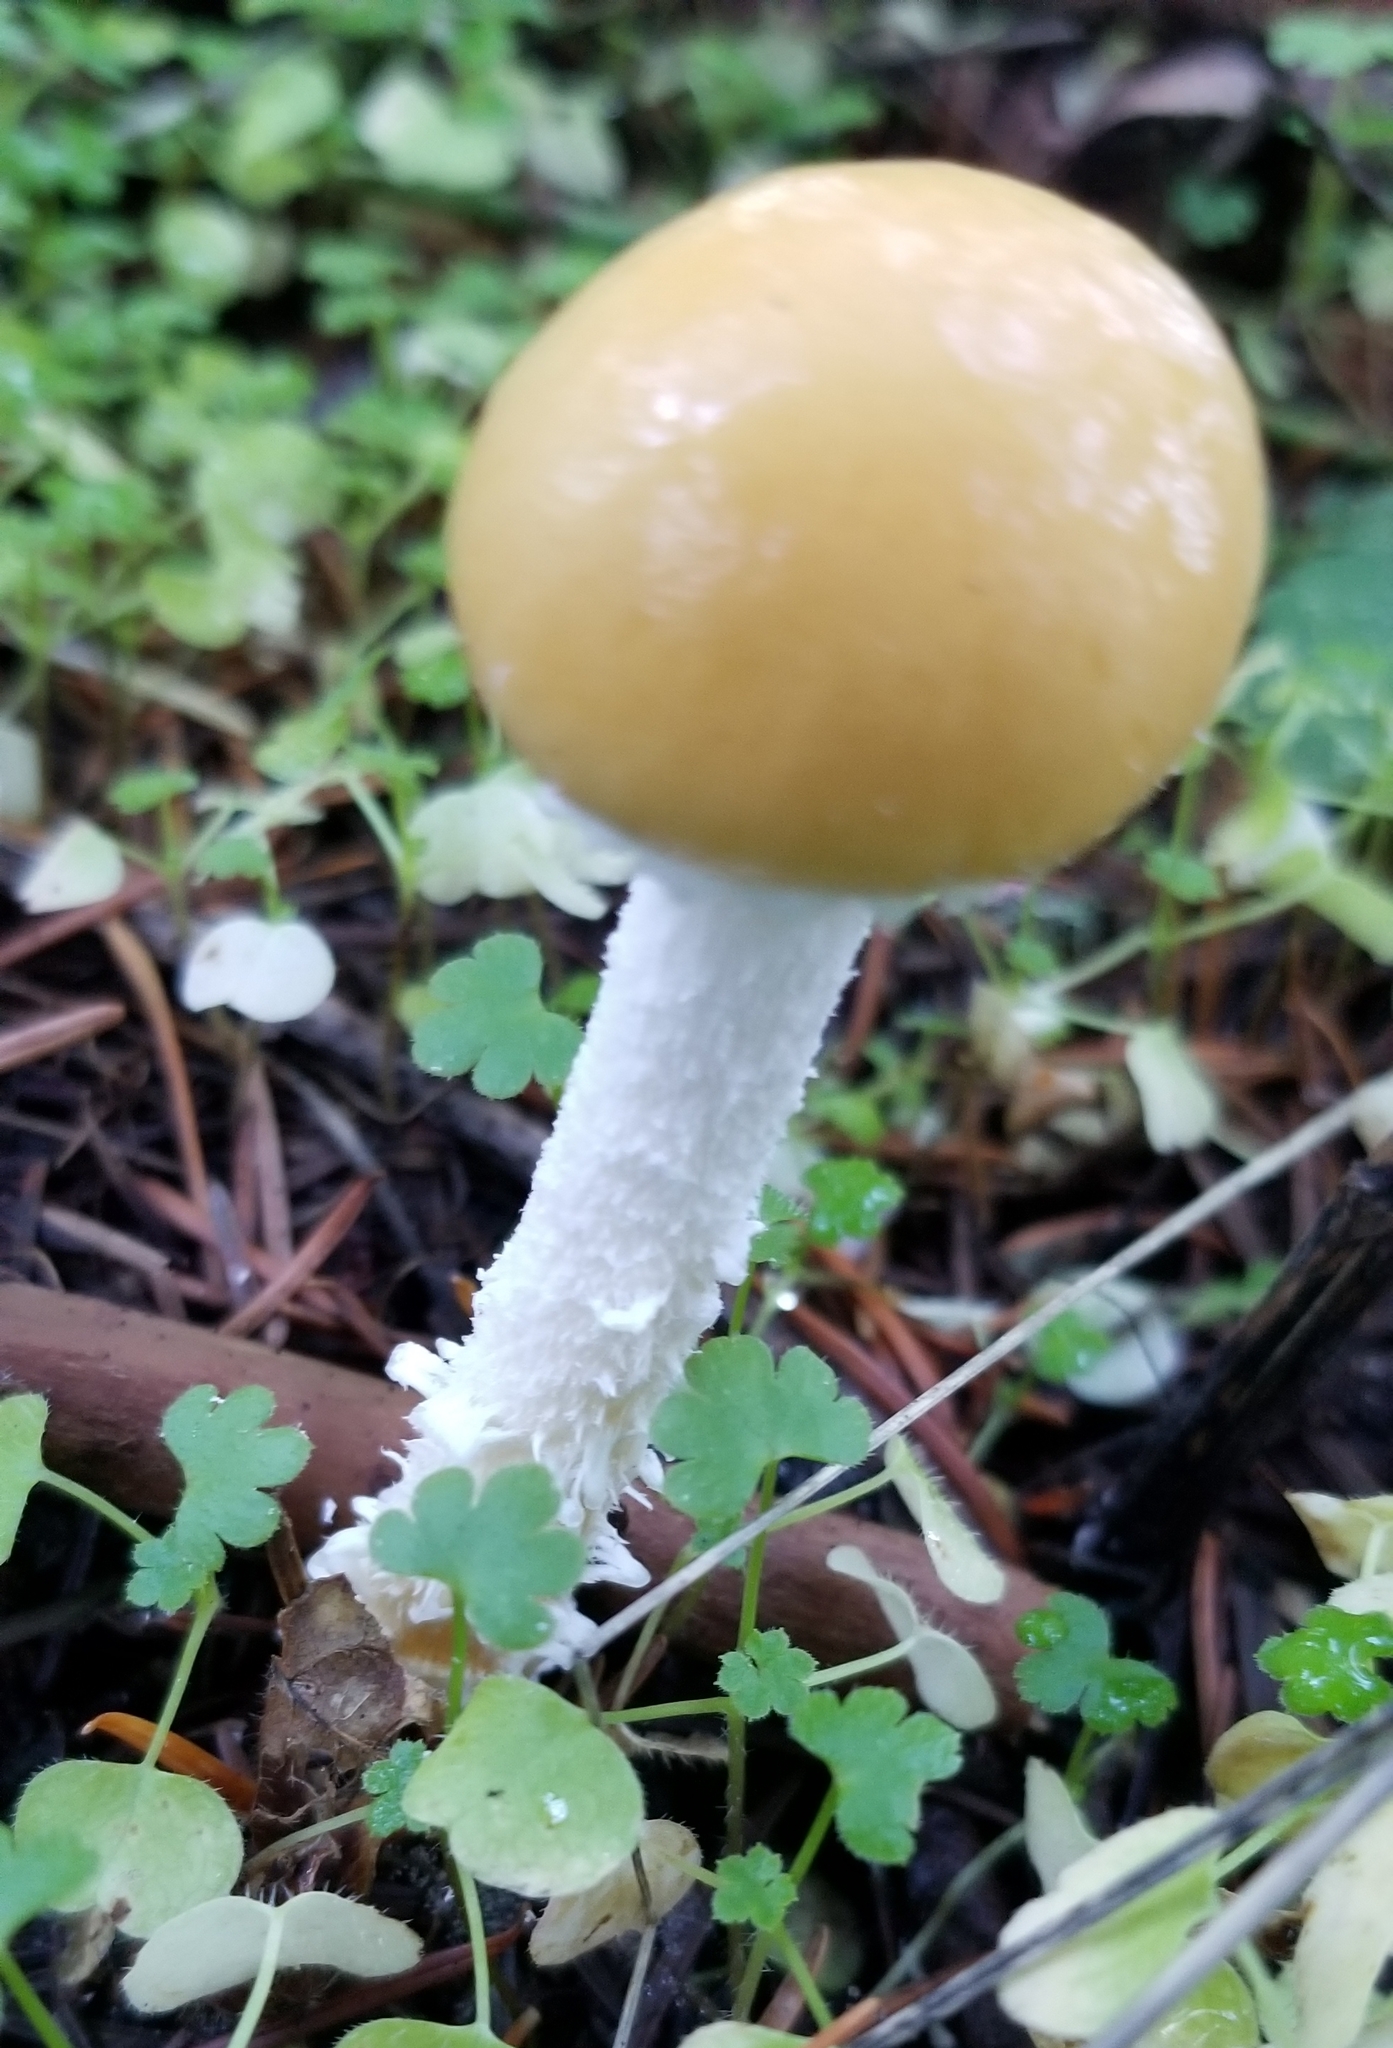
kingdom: Fungi
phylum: Basidiomycota
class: Agaricomycetes
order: Agaricales
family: Strophariaceae
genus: Stropharia
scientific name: Stropharia ambigua
